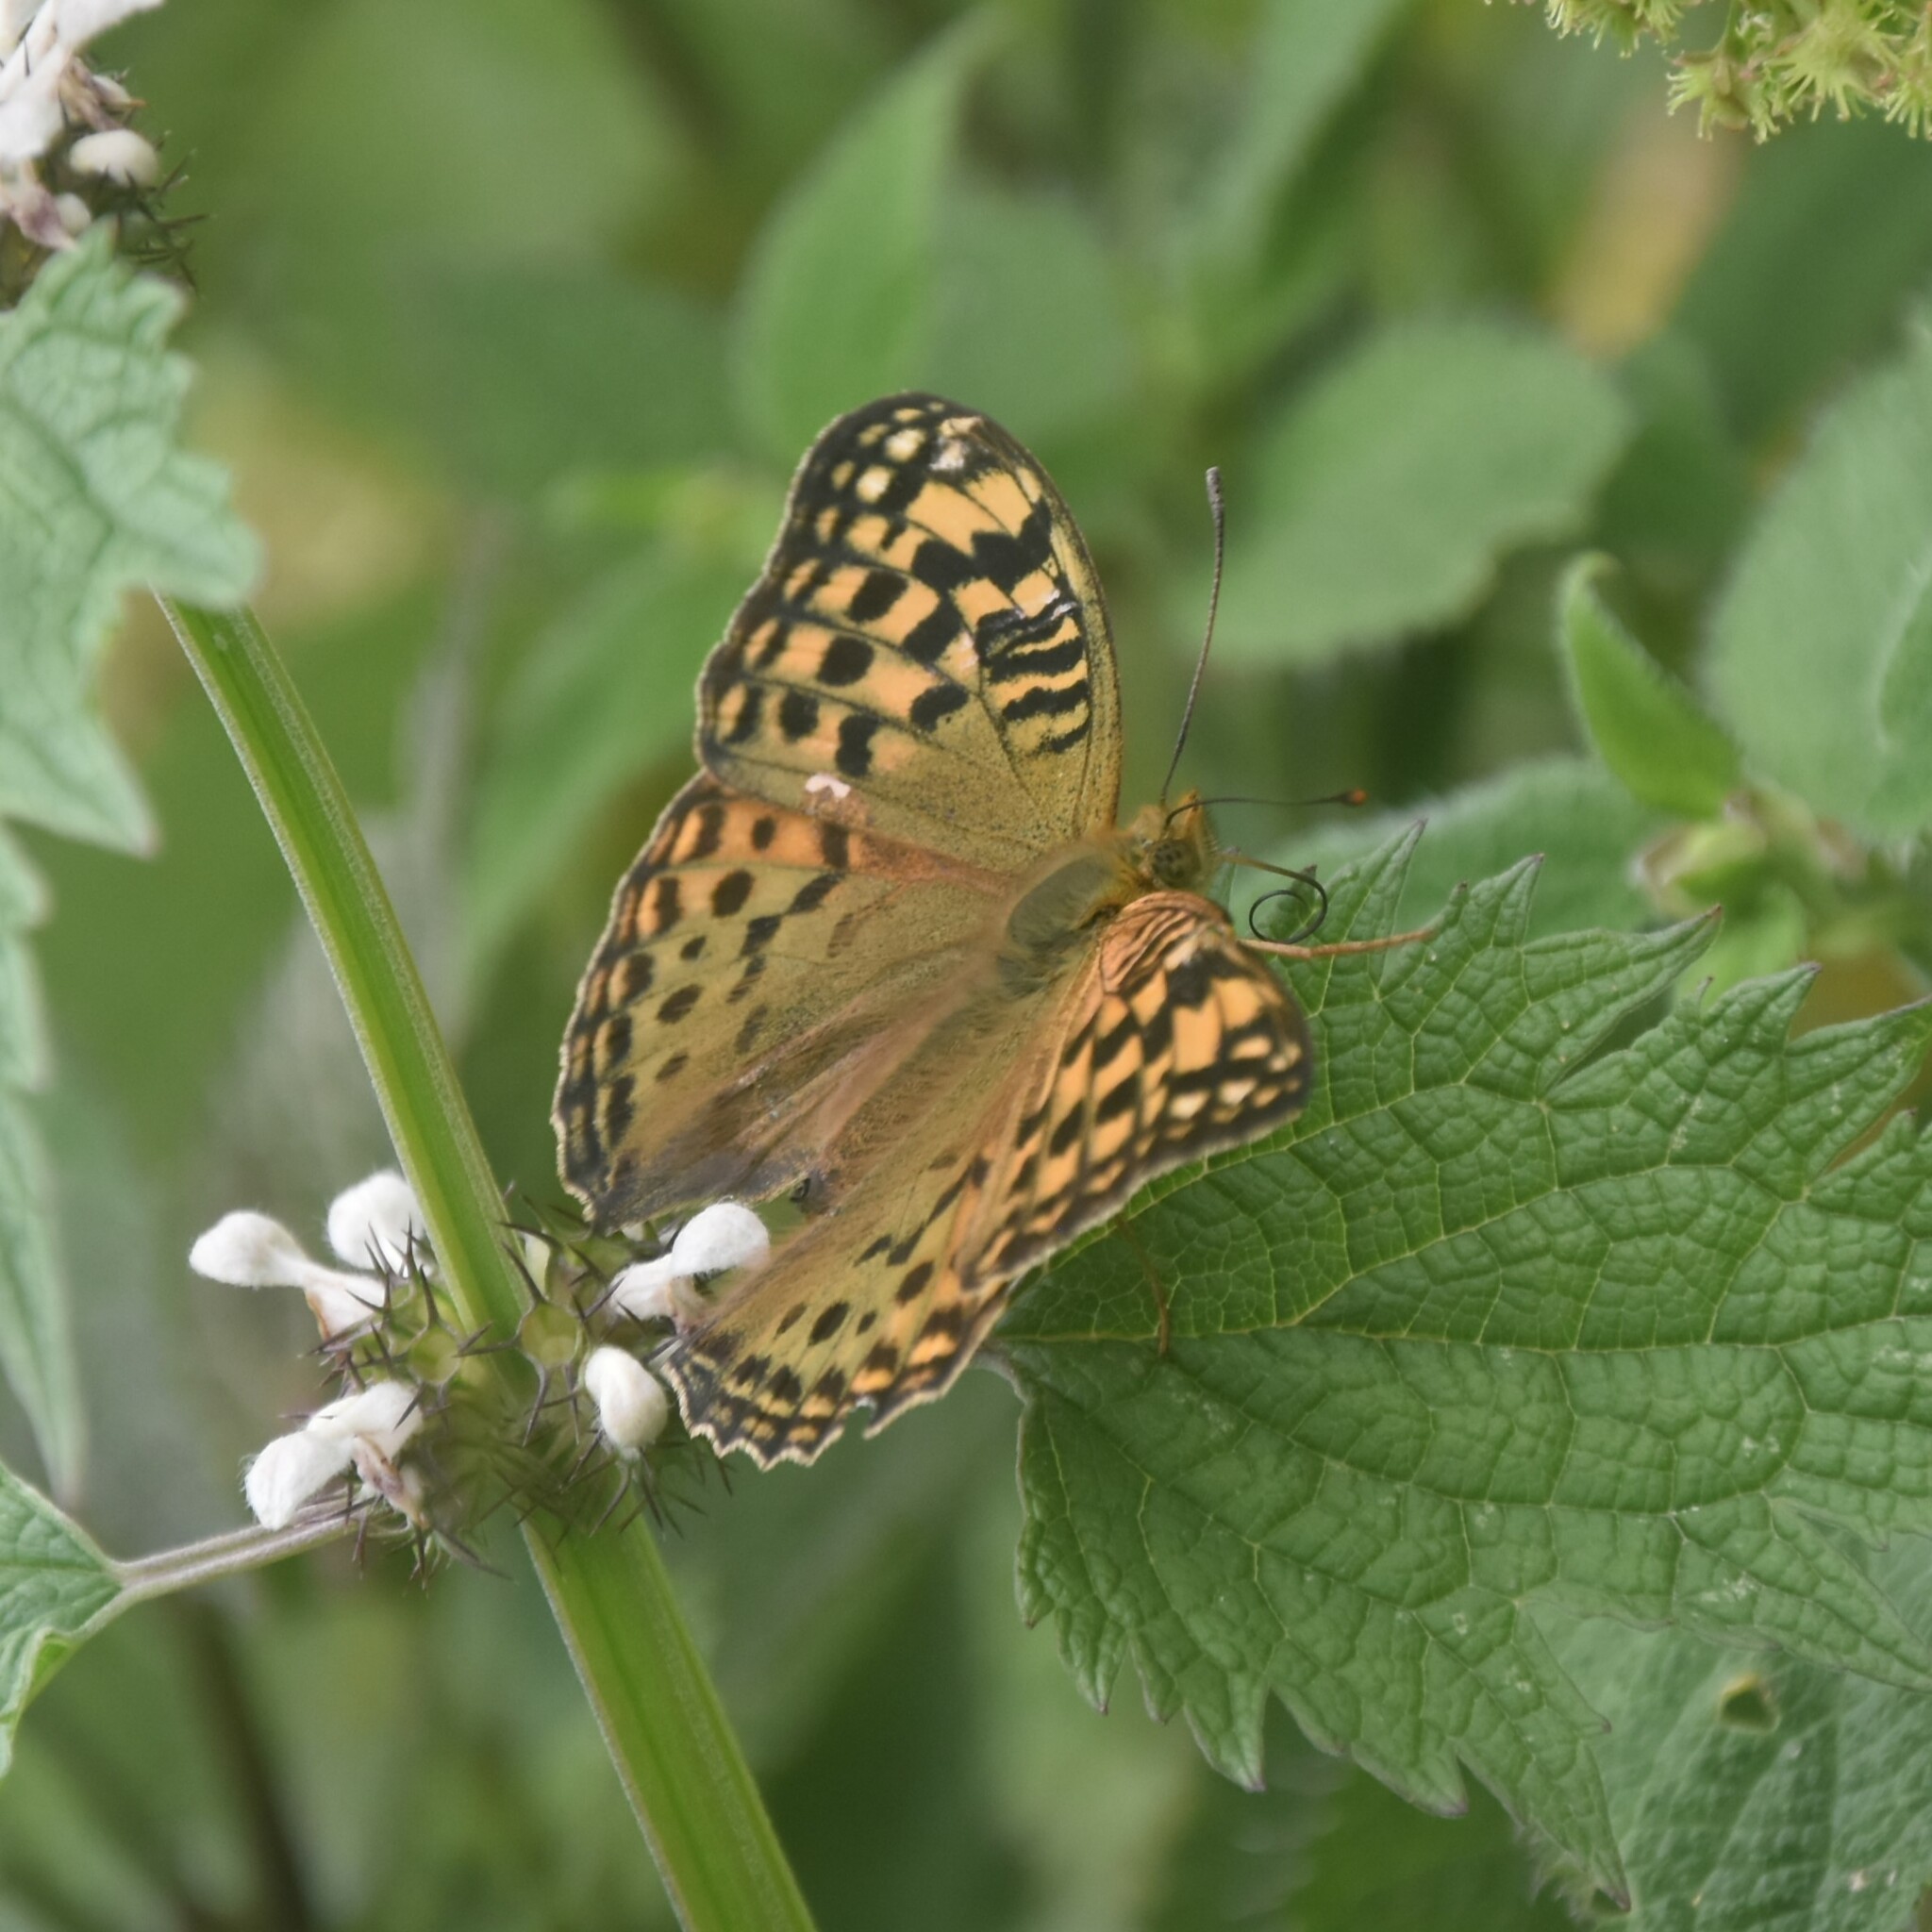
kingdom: Animalia
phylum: Arthropoda
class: Insecta
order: Lepidoptera
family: Nymphalidae
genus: Fabriciana
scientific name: Fabriciana kamala
